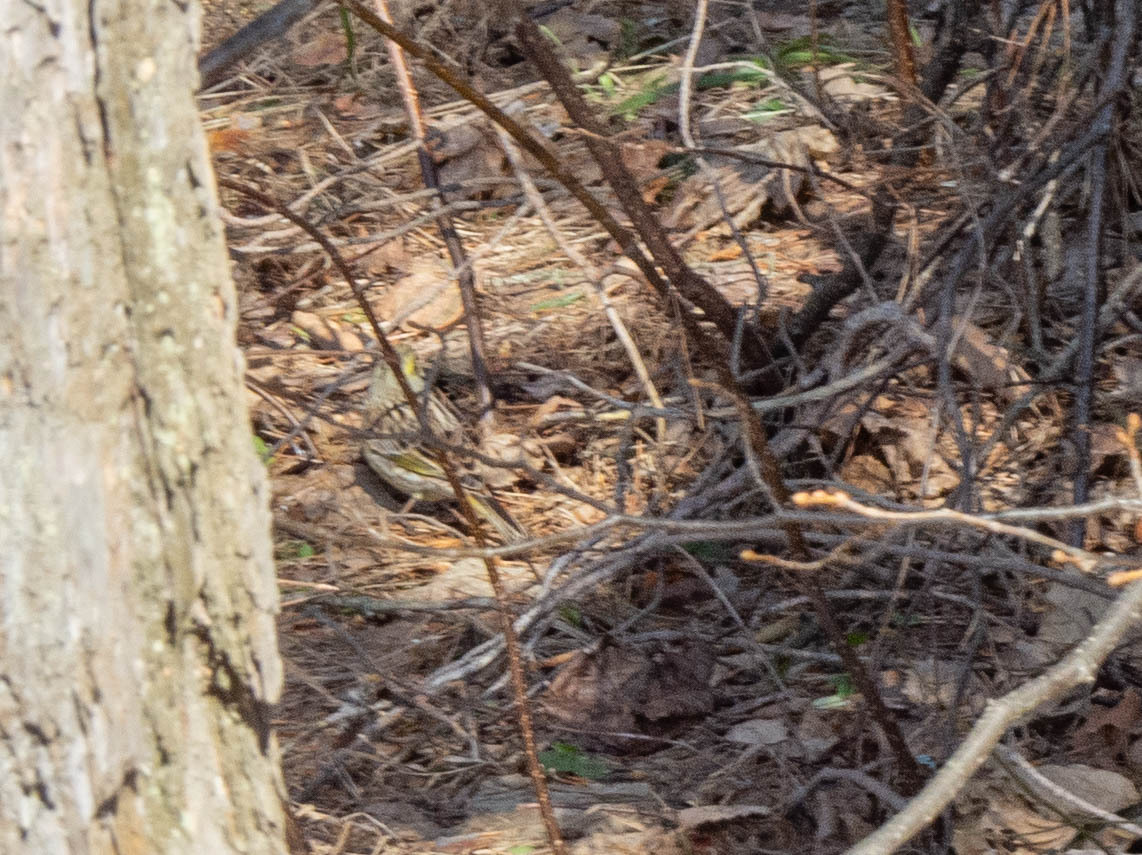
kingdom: Animalia
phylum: Chordata
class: Aves
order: Passeriformes
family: Emberizidae
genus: Emberiza
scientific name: Emberiza citrinella
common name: Yellowhammer
